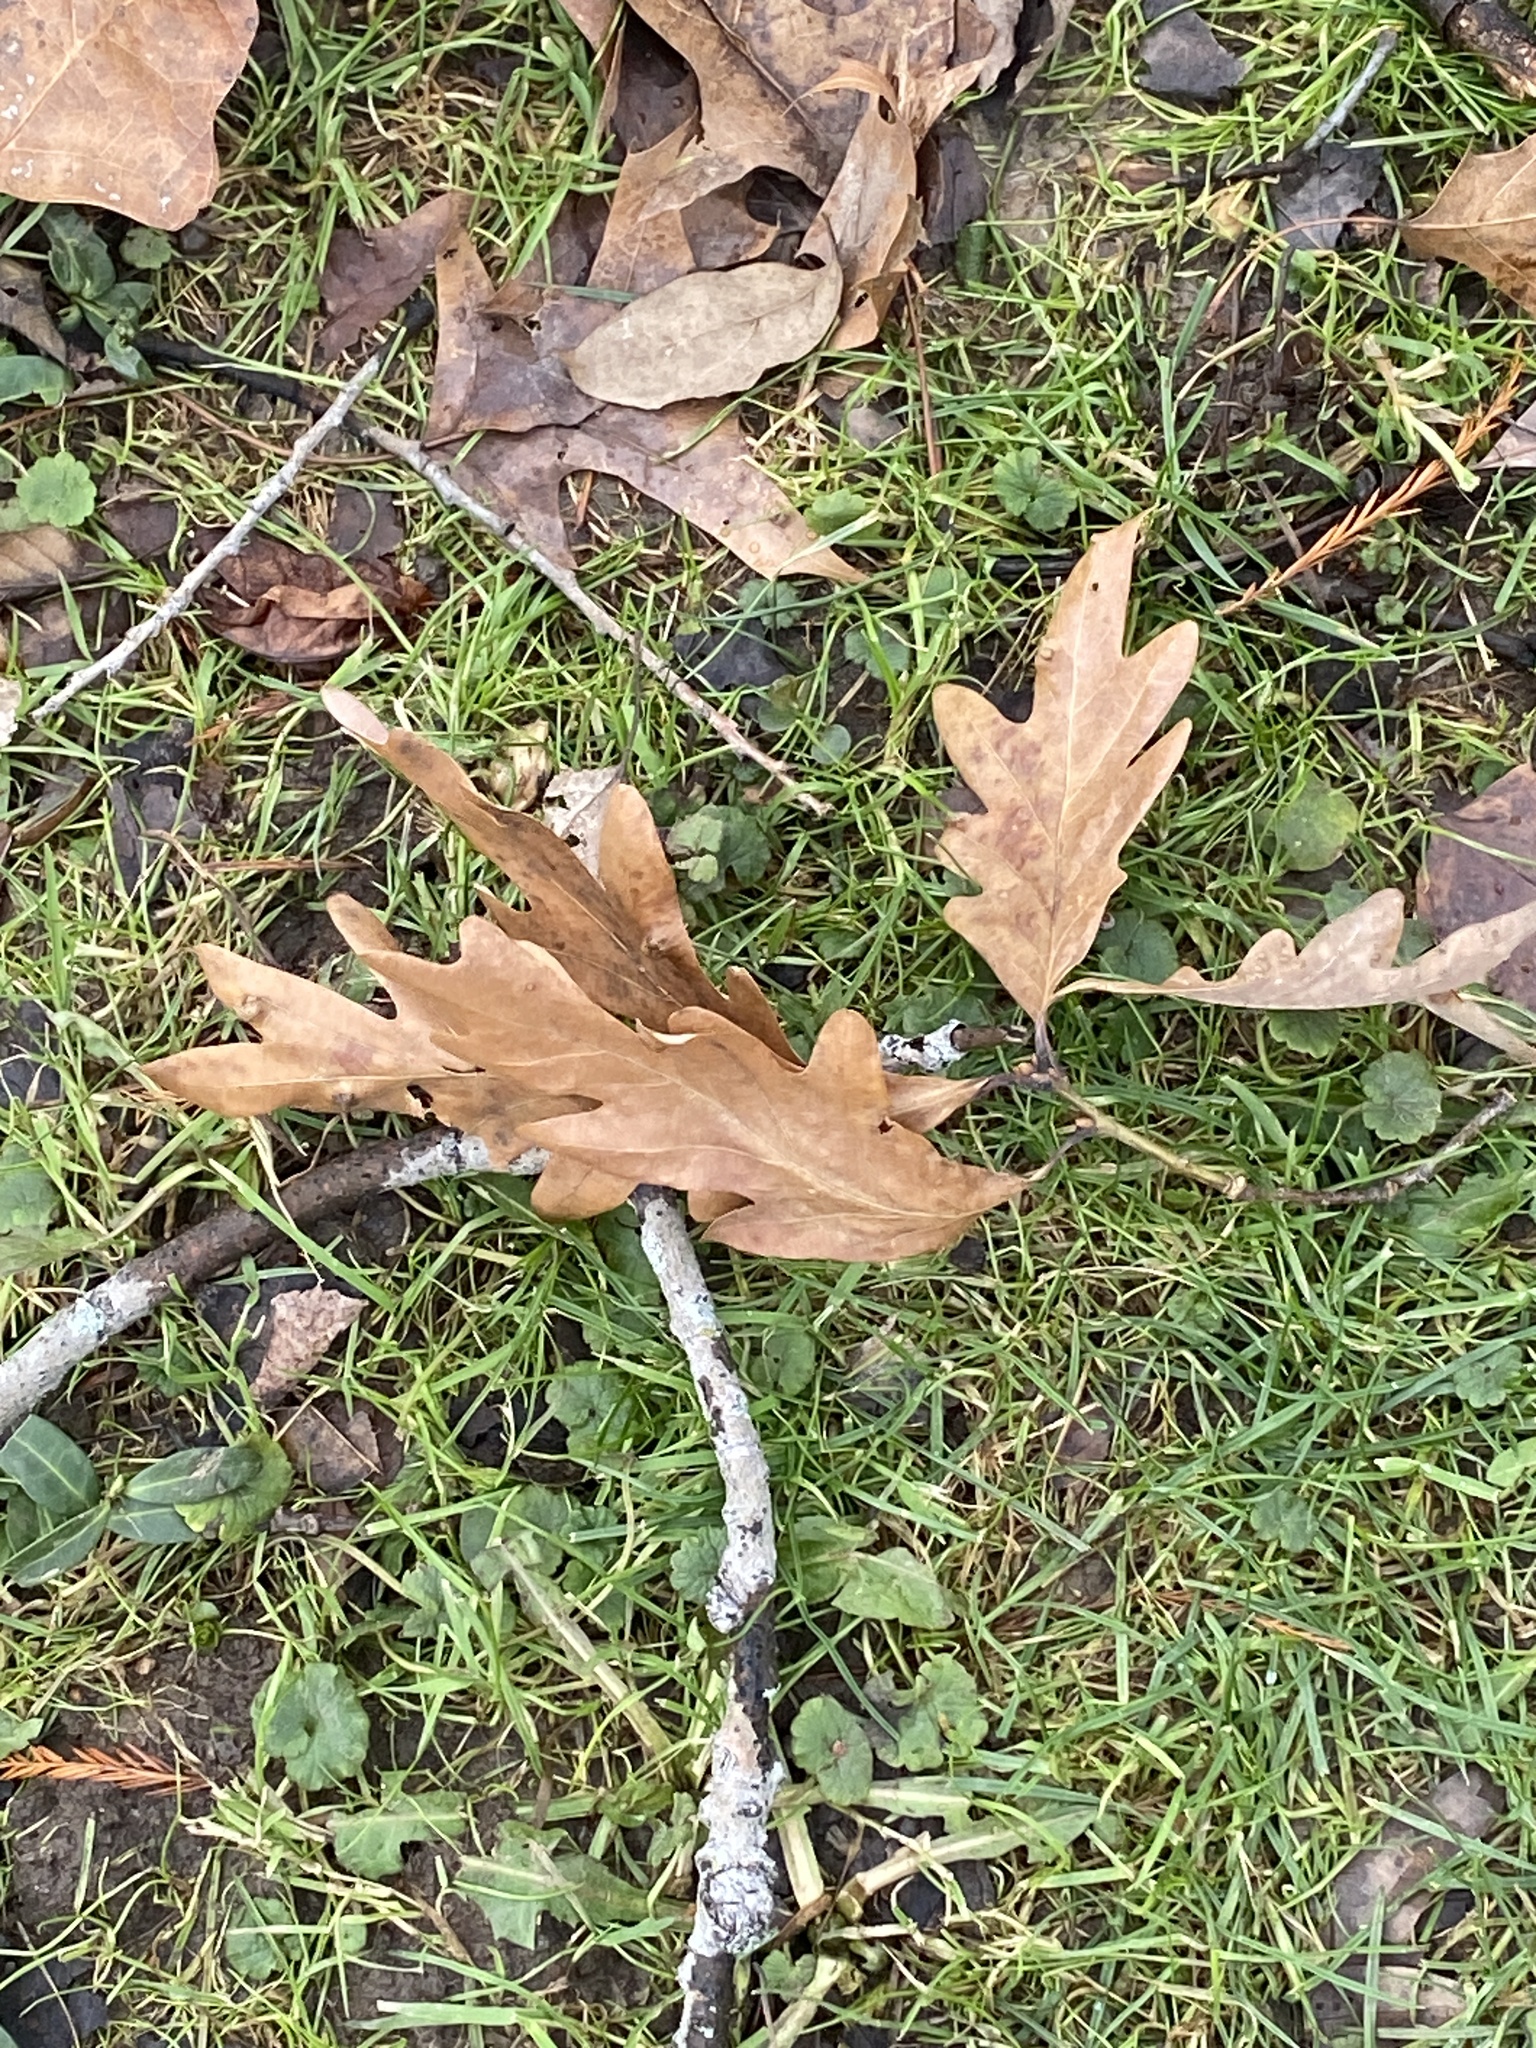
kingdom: Plantae
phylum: Tracheophyta
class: Magnoliopsida
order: Fagales
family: Fagaceae
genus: Quercus
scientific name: Quercus alba
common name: White oak
